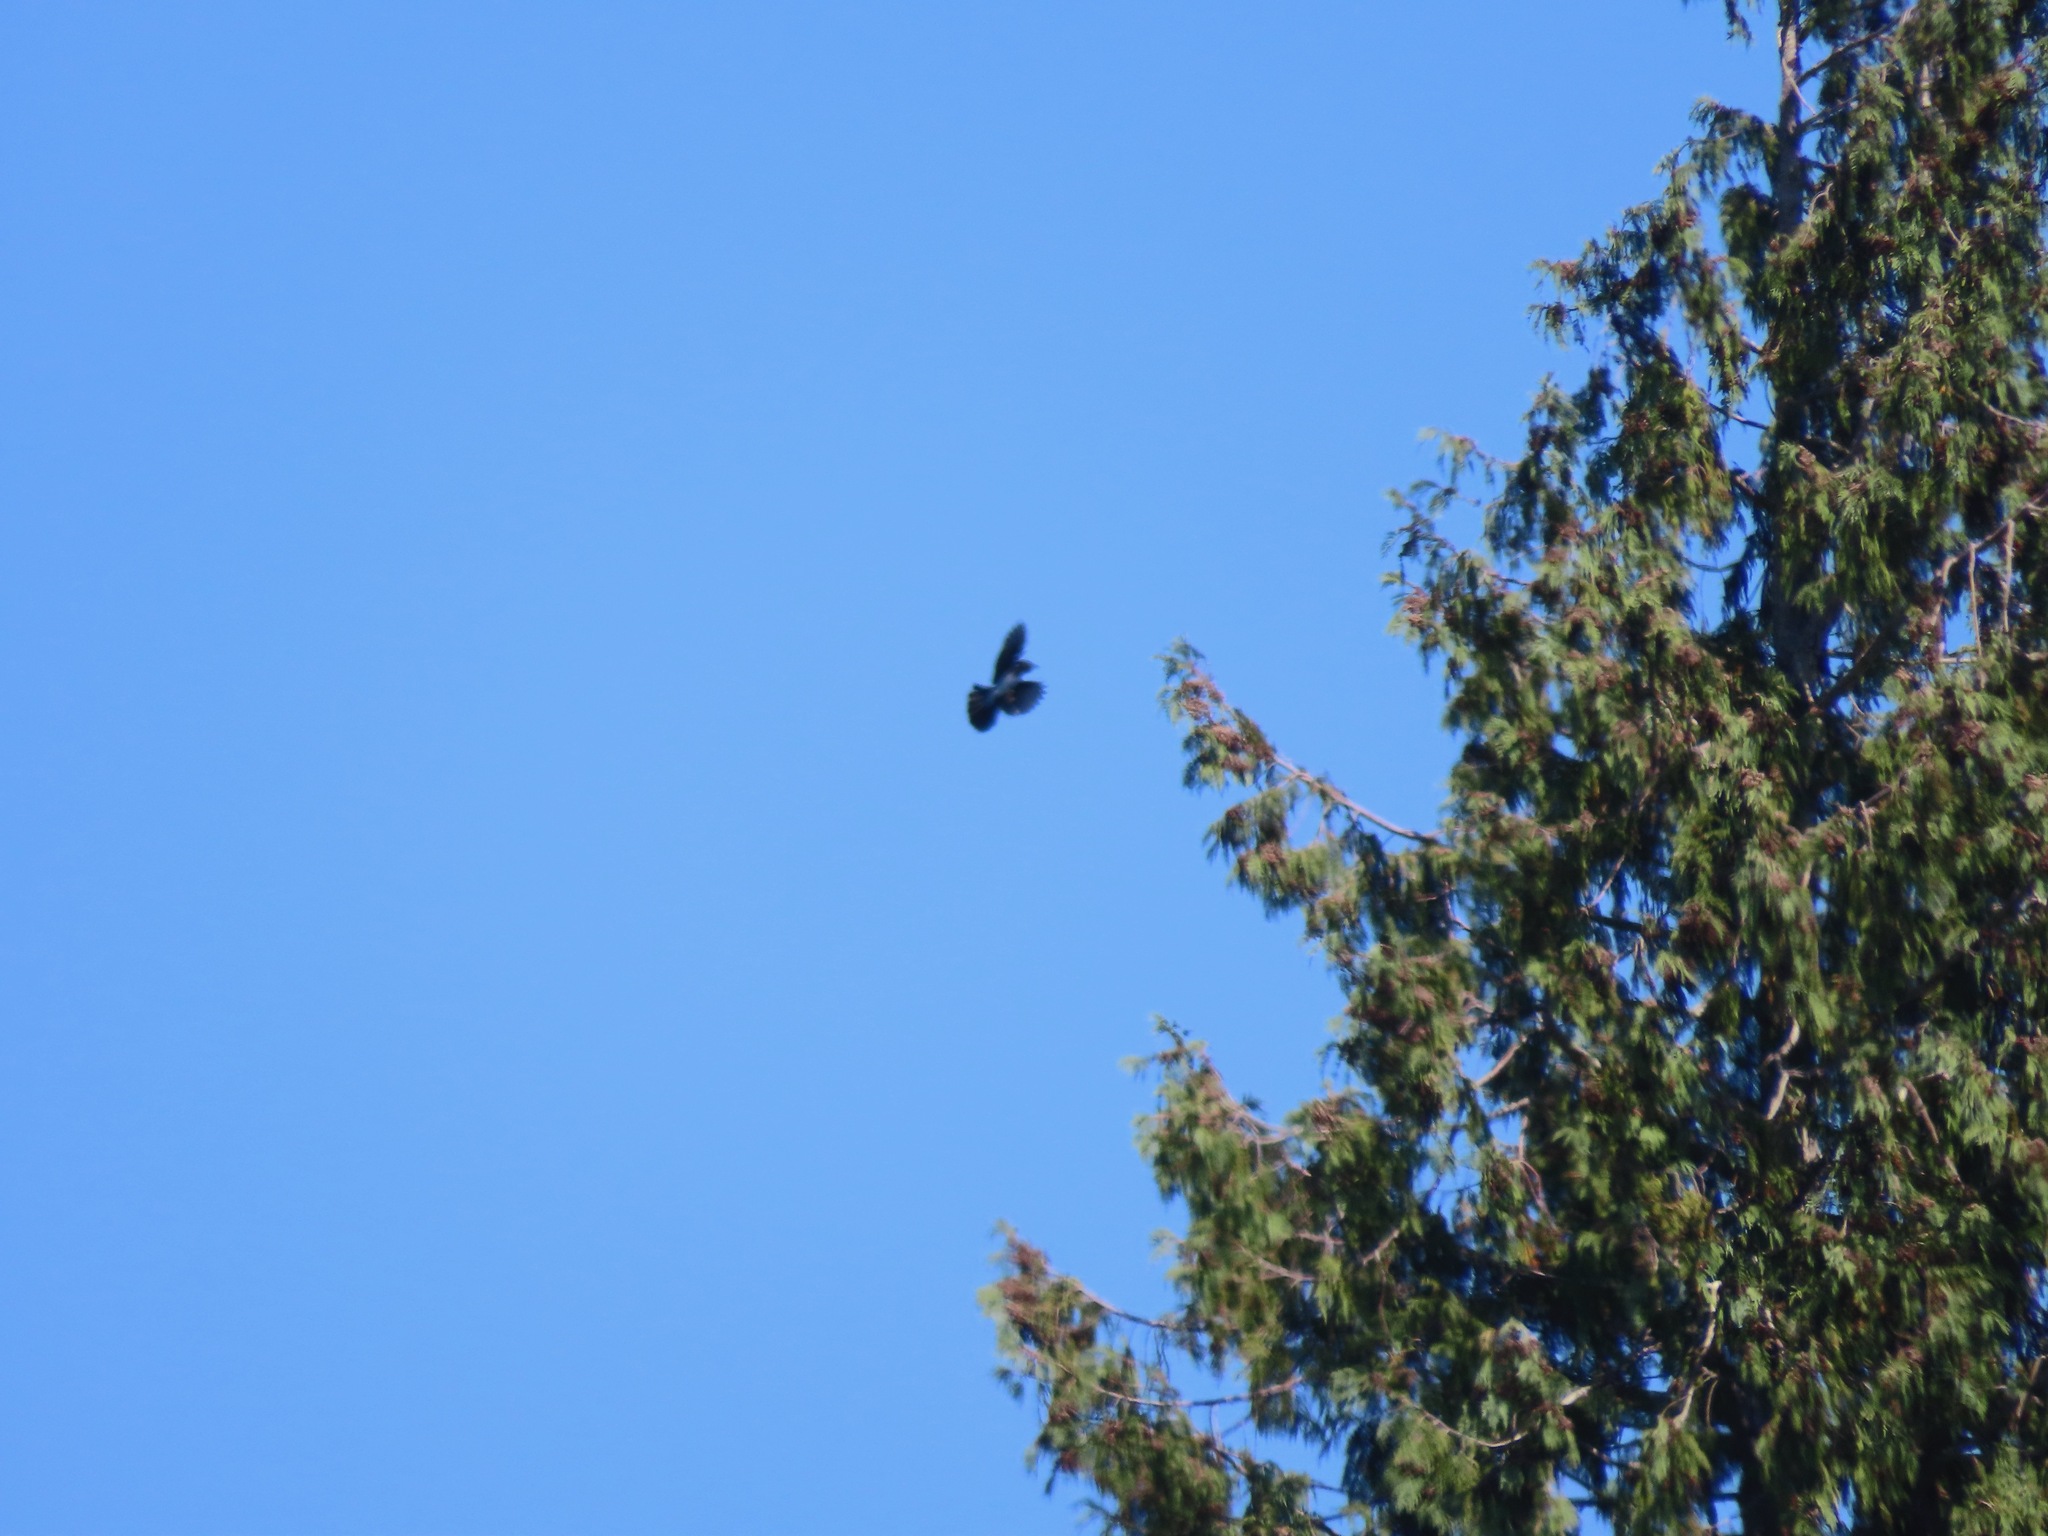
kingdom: Animalia
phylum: Chordata
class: Aves
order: Passeriformes
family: Corvidae
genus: Cyanocitta
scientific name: Cyanocitta stelleri
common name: Steller's jay
